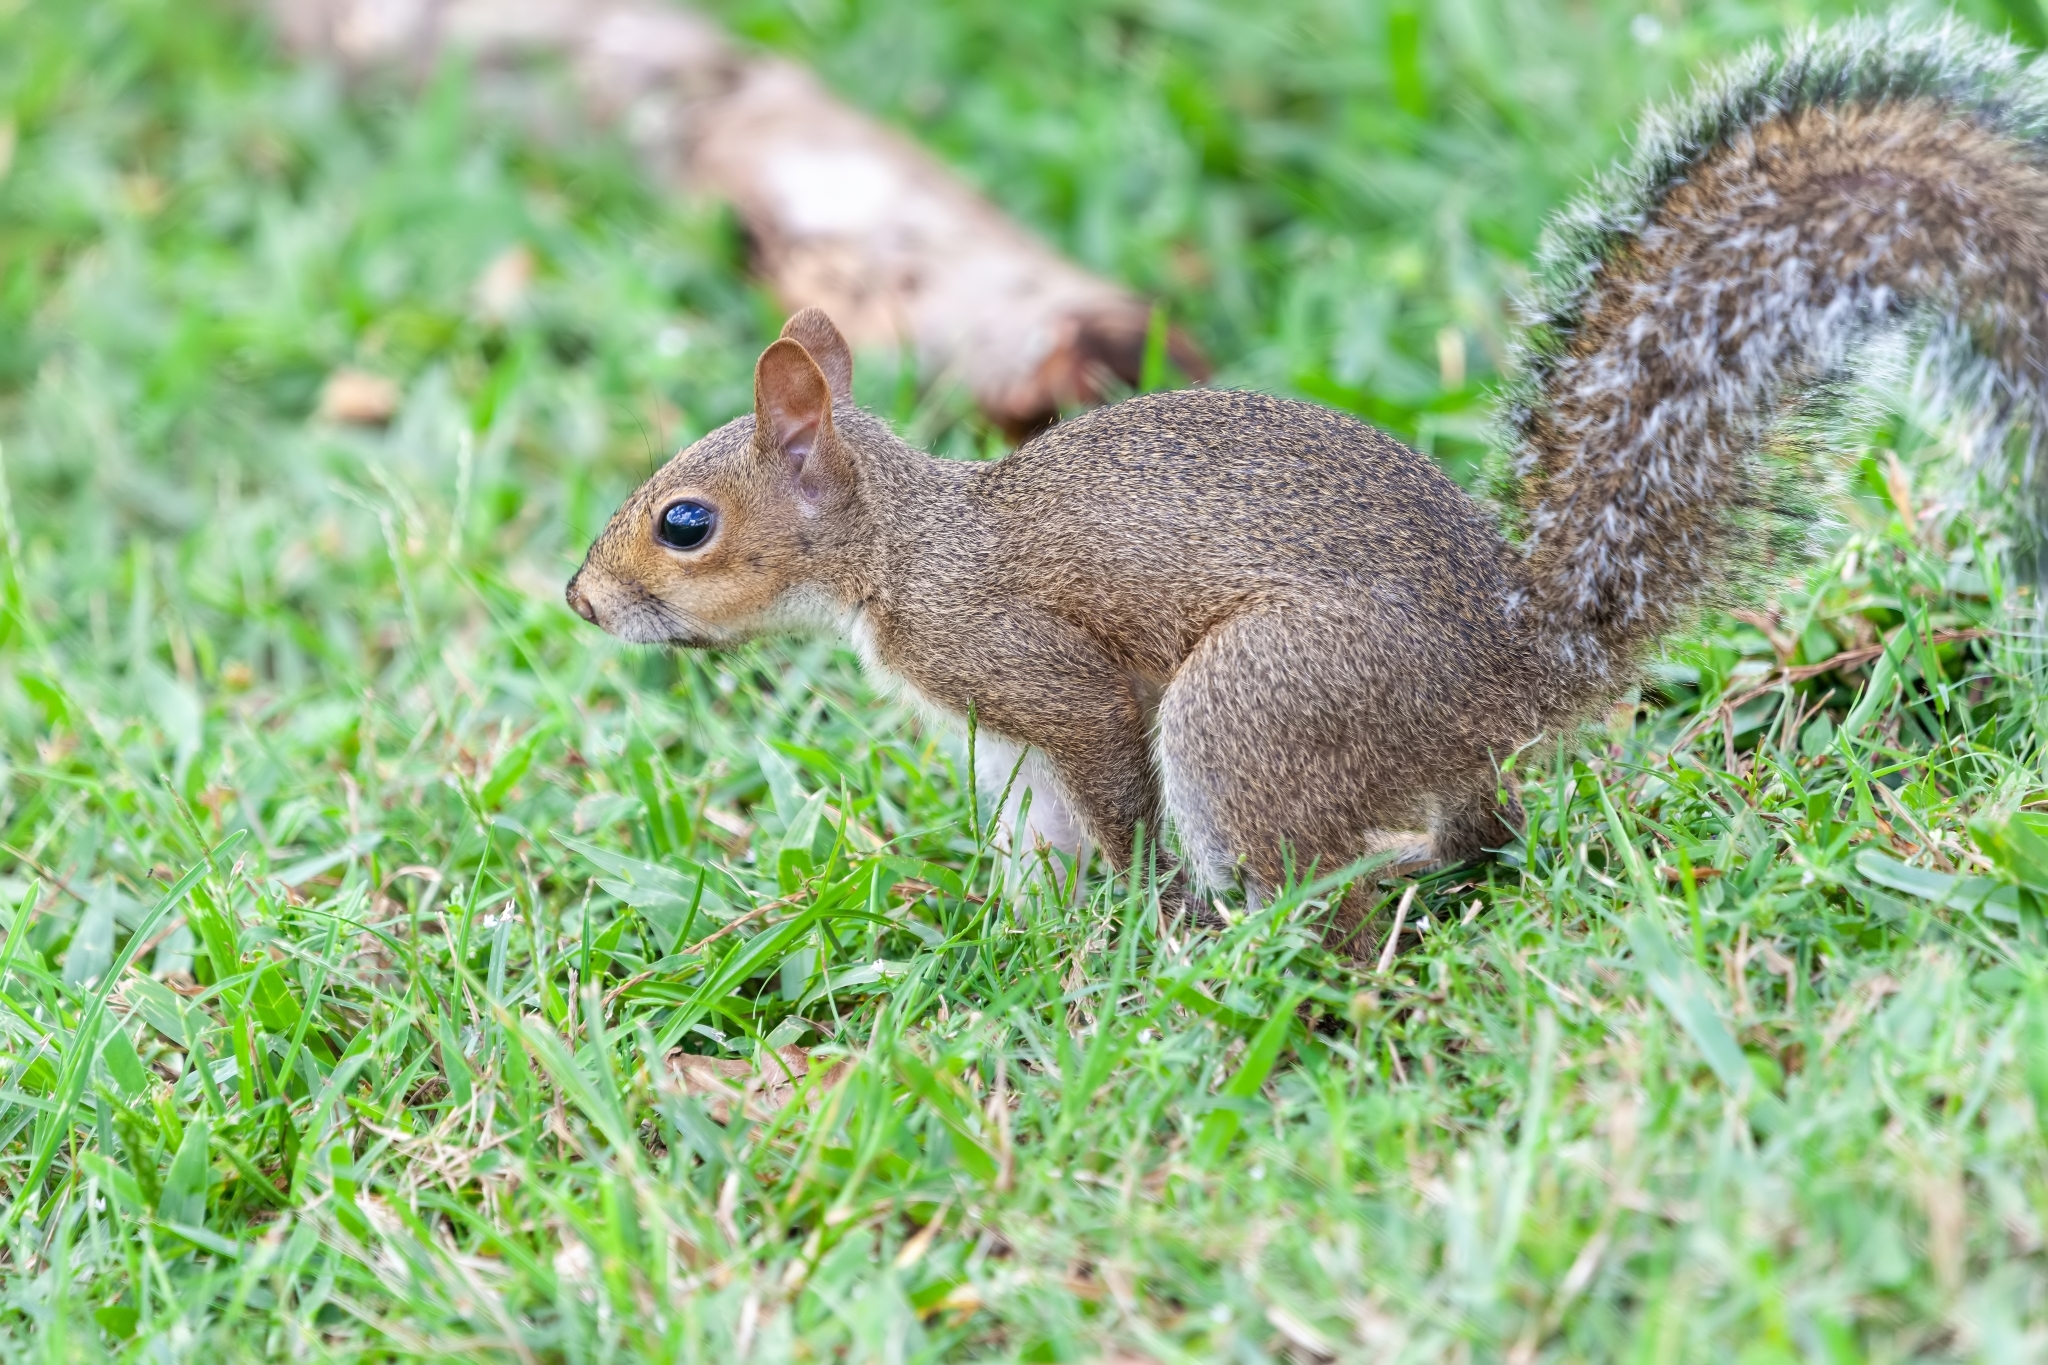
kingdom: Animalia
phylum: Chordata
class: Mammalia
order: Rodentia
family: Sciuridae
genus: Sciurus
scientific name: Sciurus carolinensis
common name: Eastern gray squirrel
